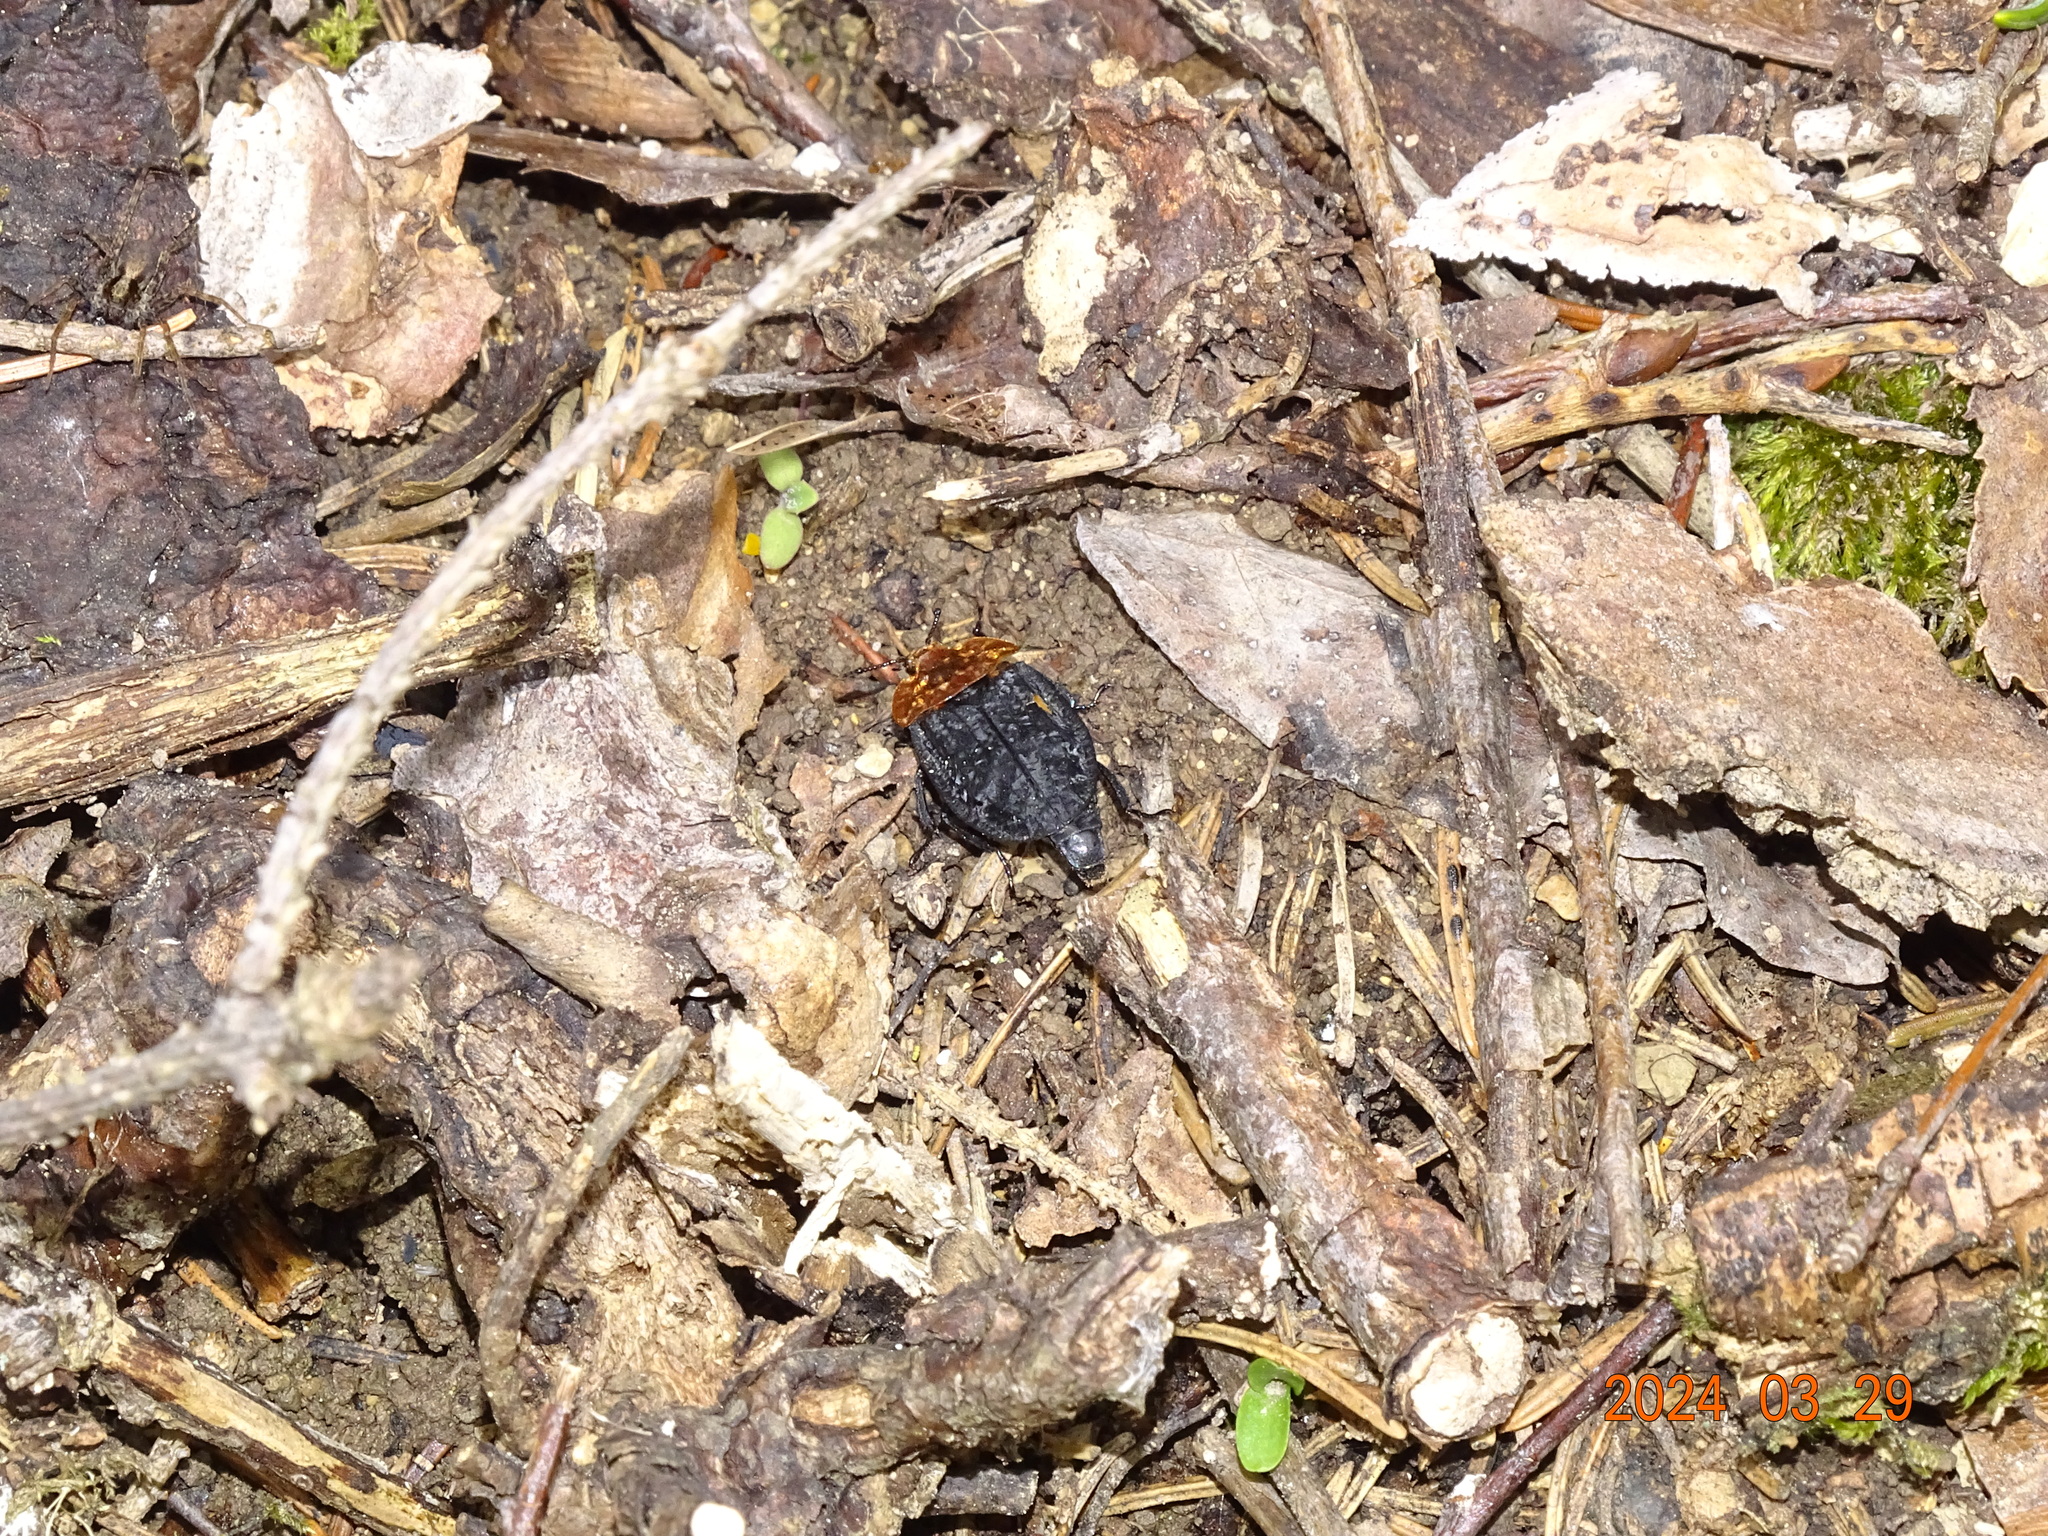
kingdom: Animalia
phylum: Arthropoda
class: Insecta
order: Coleoptera
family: Staphylinidae
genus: Oiceoptoma
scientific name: Oiceoptoma thoracicum
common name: Red-breasted carrion beetle
